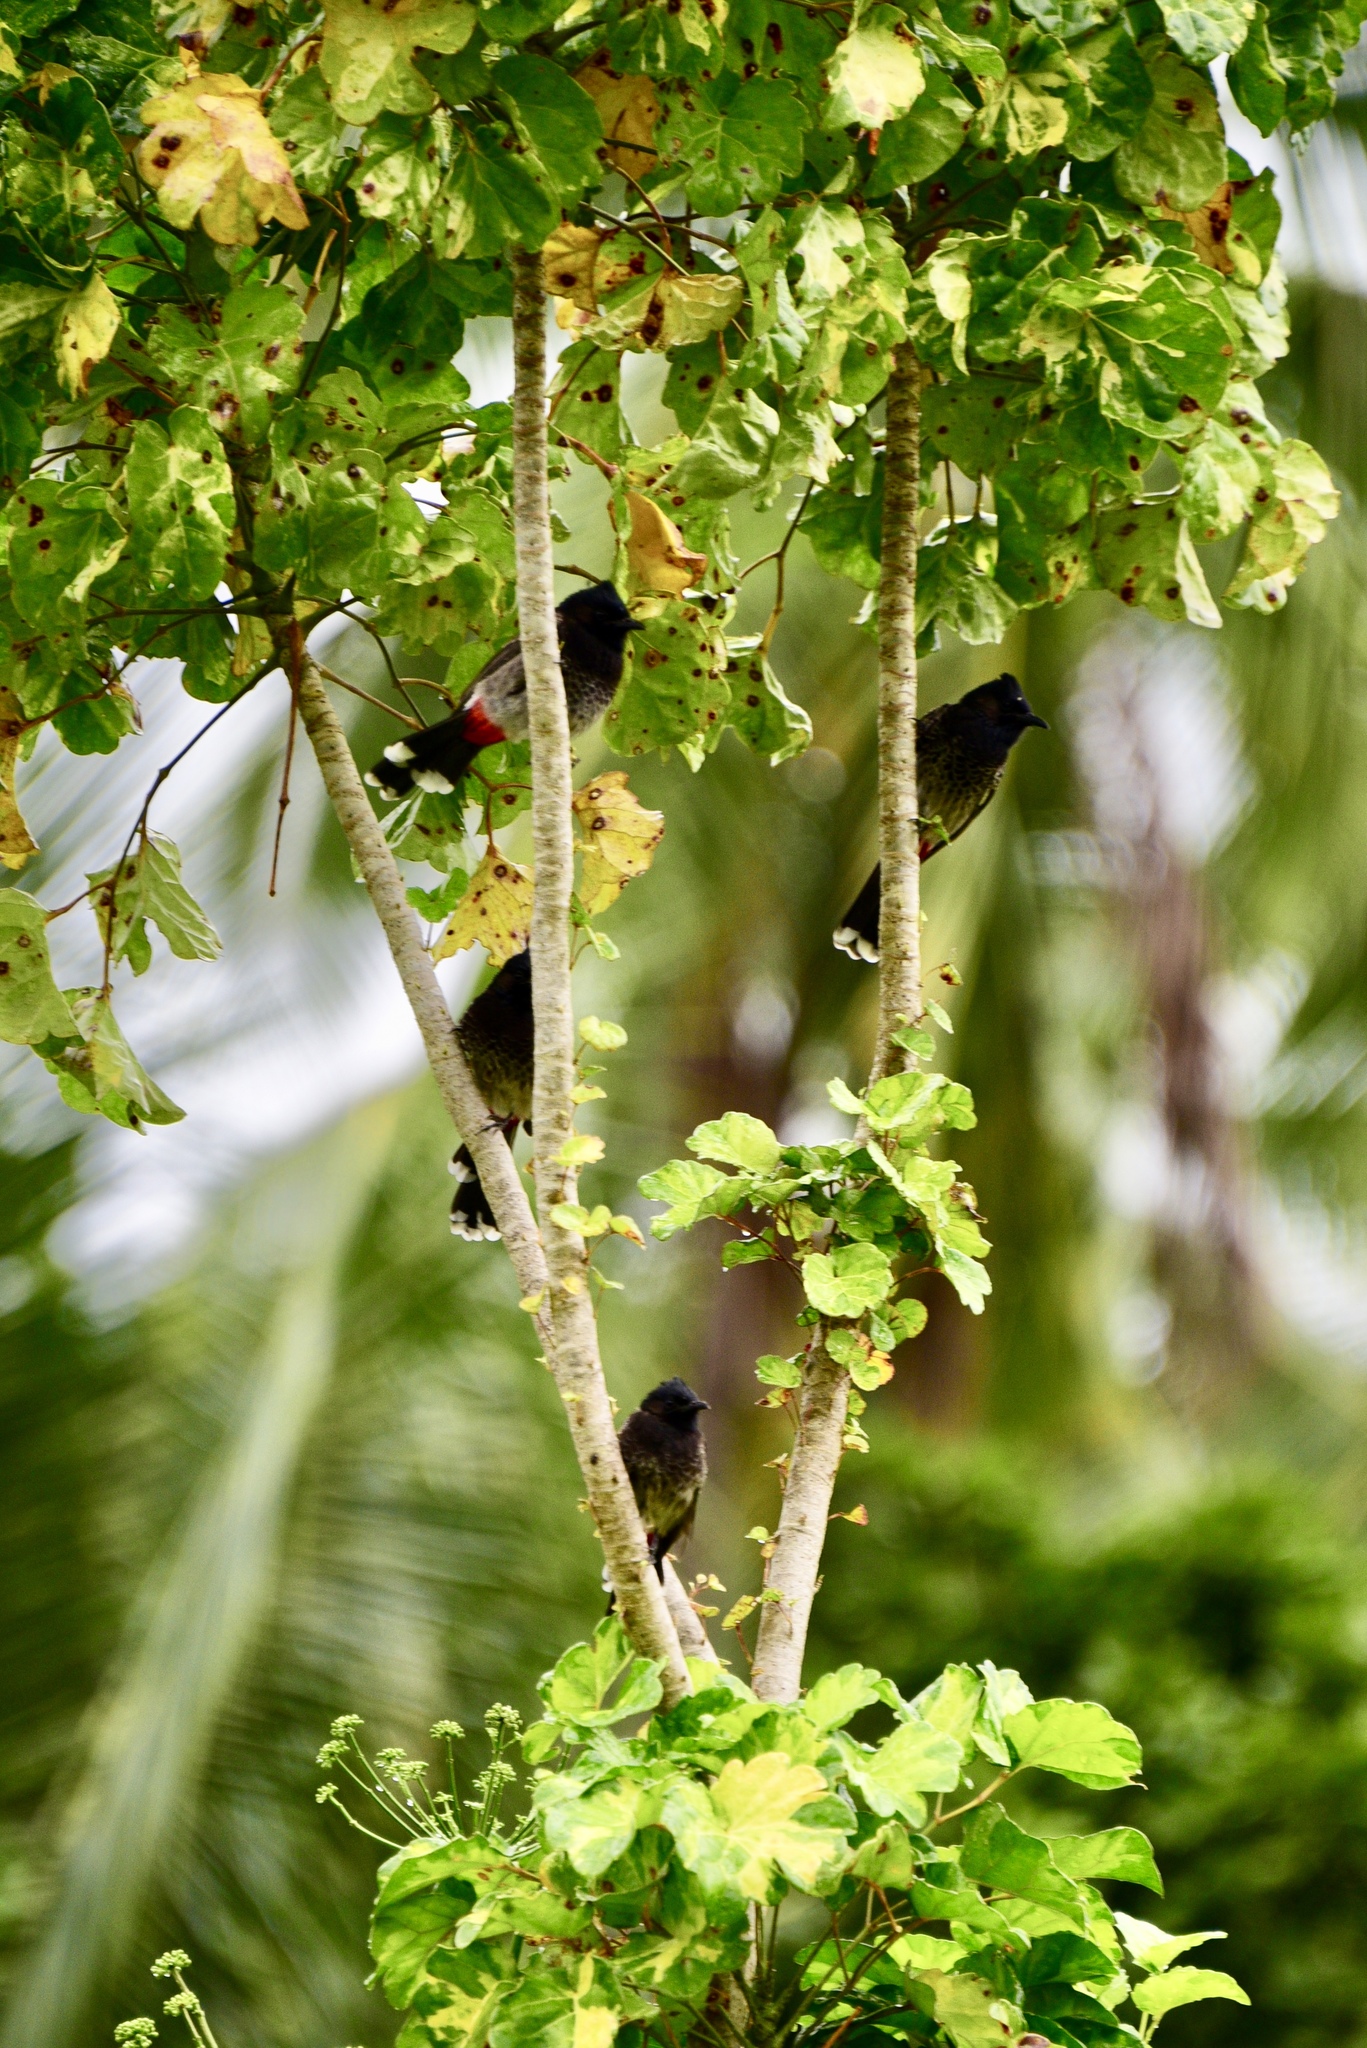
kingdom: Animalia
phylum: Chordata
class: Aves
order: Passeriformes
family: Pycnonotidae
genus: Pycnonotus
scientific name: Pycnonotus cafer
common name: Red-vented bulbul
